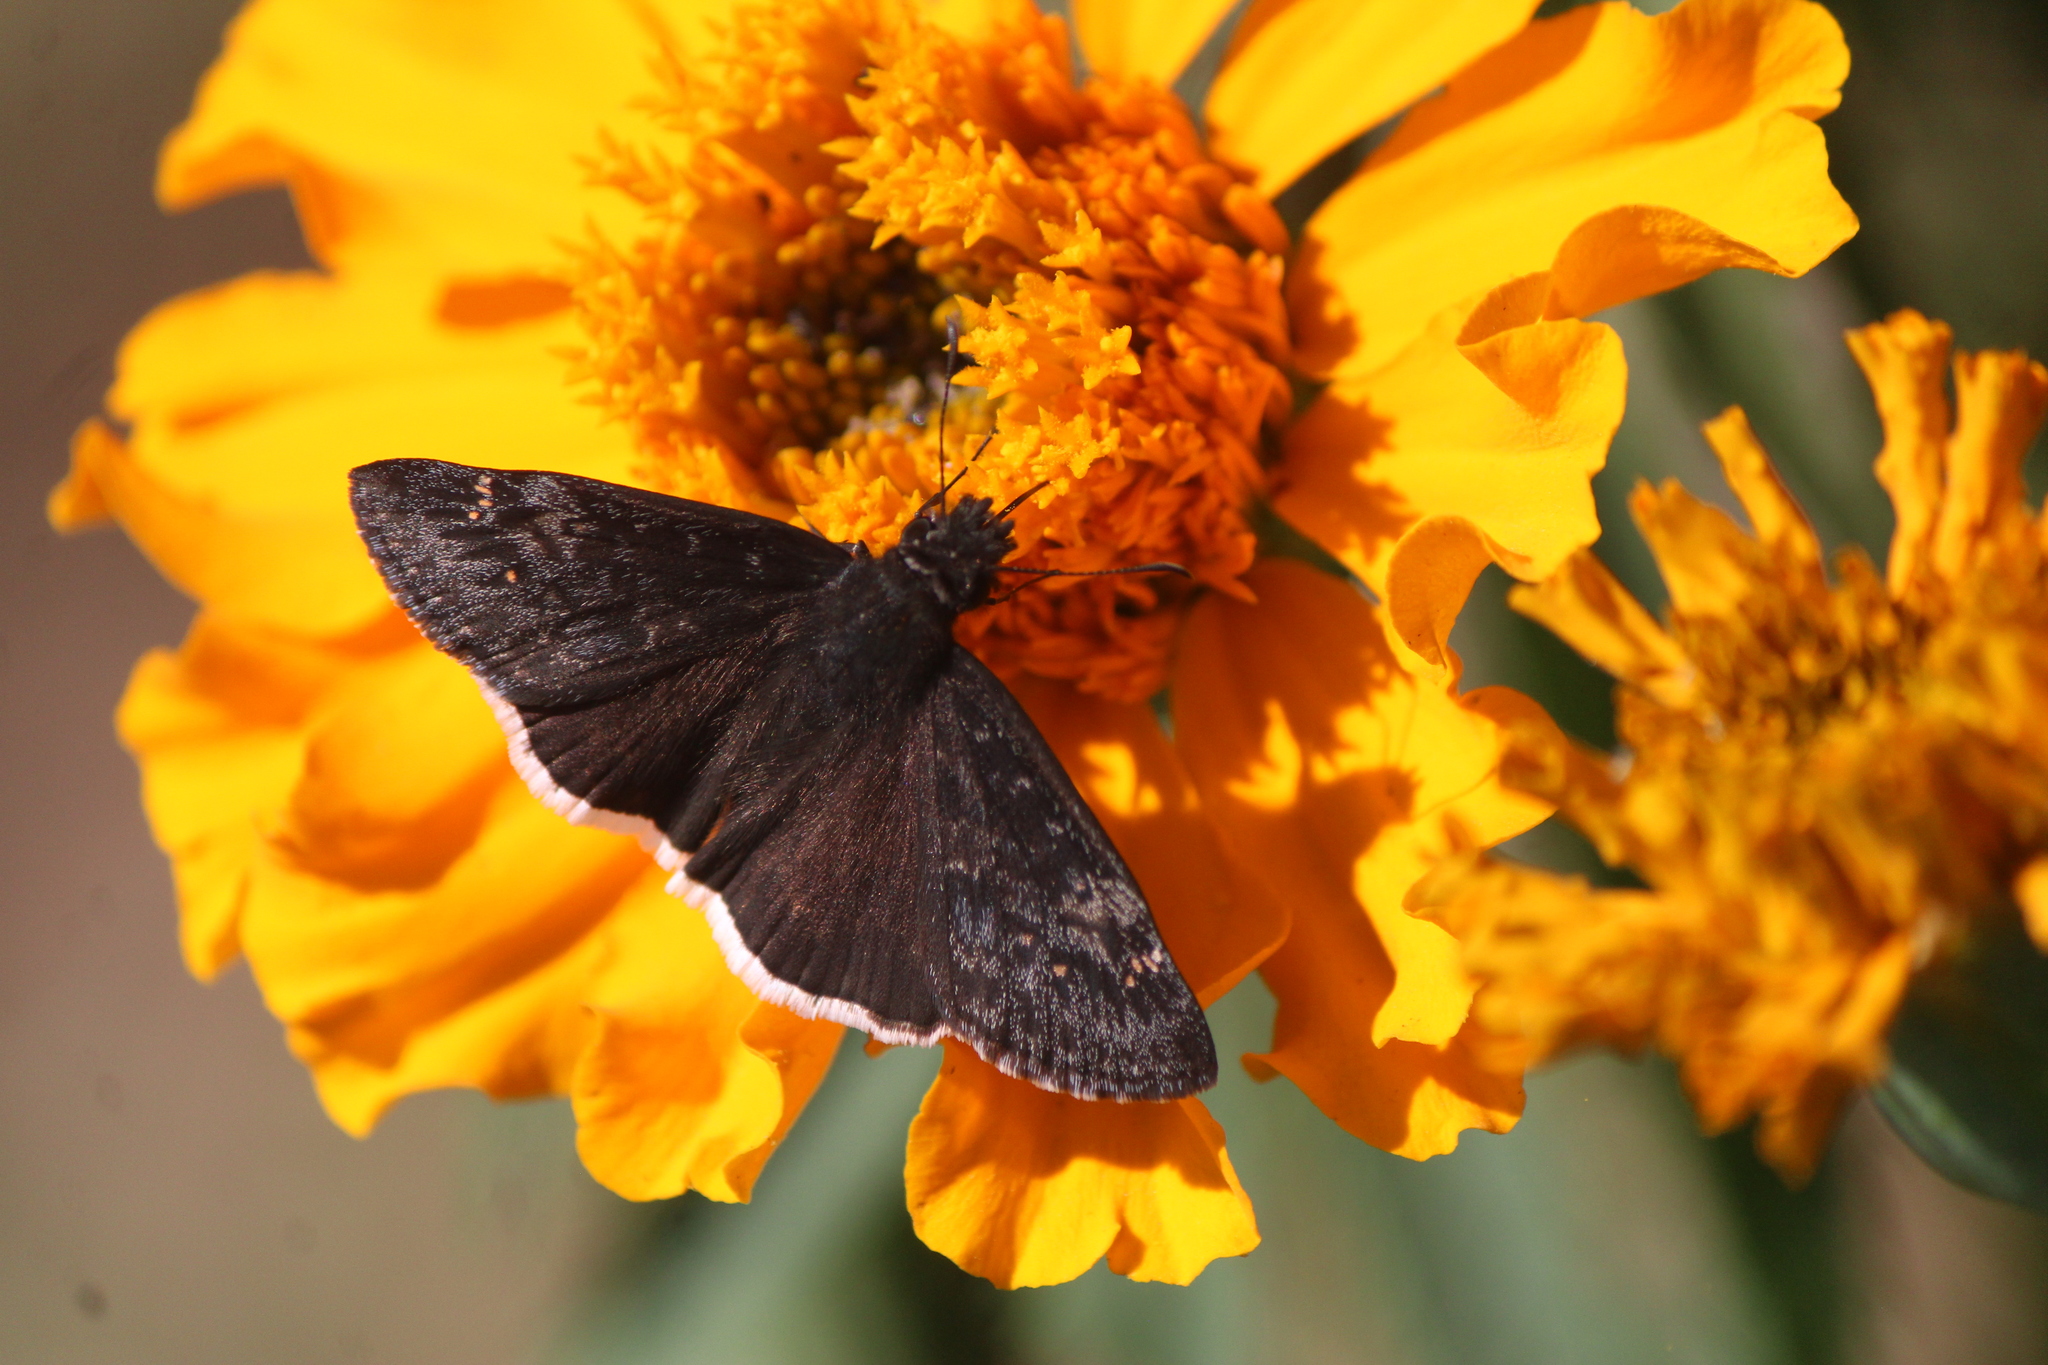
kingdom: Animalia
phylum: Arthropoda
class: Insecta
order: Lepidoptera
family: Hesperiidae
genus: Erynnis
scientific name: Erynnis funeralis
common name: Funereal duskywing
